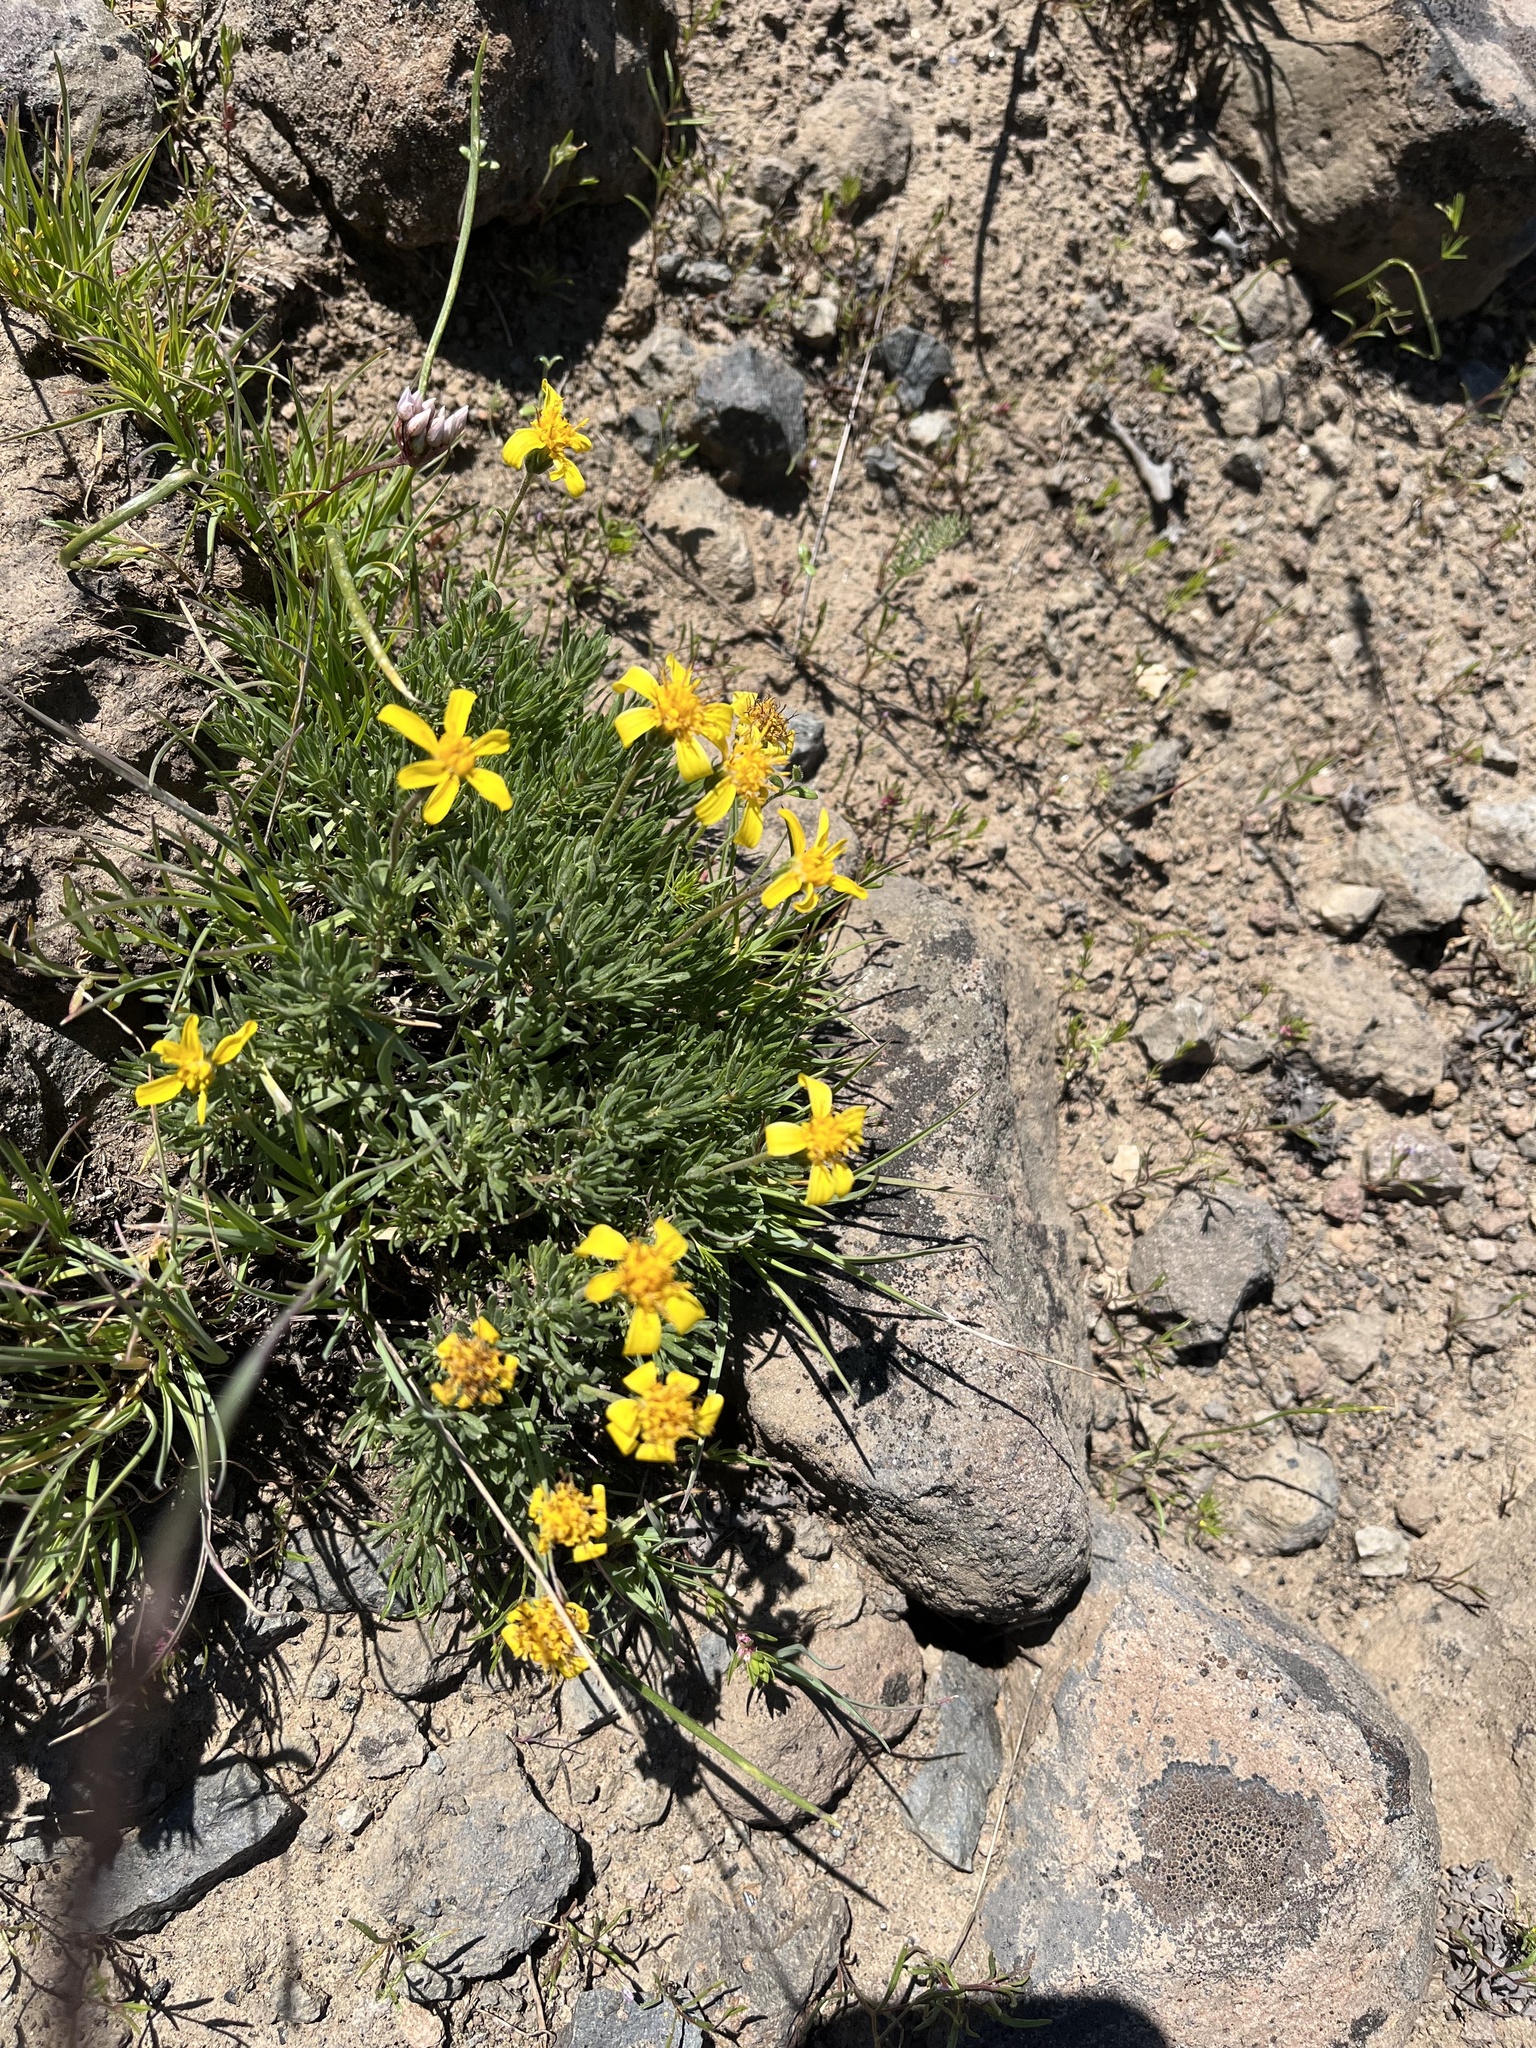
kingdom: Plantae
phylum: Tracheophyta
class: Magnoliopsida
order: Asterales
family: Asteraceae
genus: Nestotus
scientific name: Nestotus stenophyllus
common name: Narrow-leaf mock goldenweed
